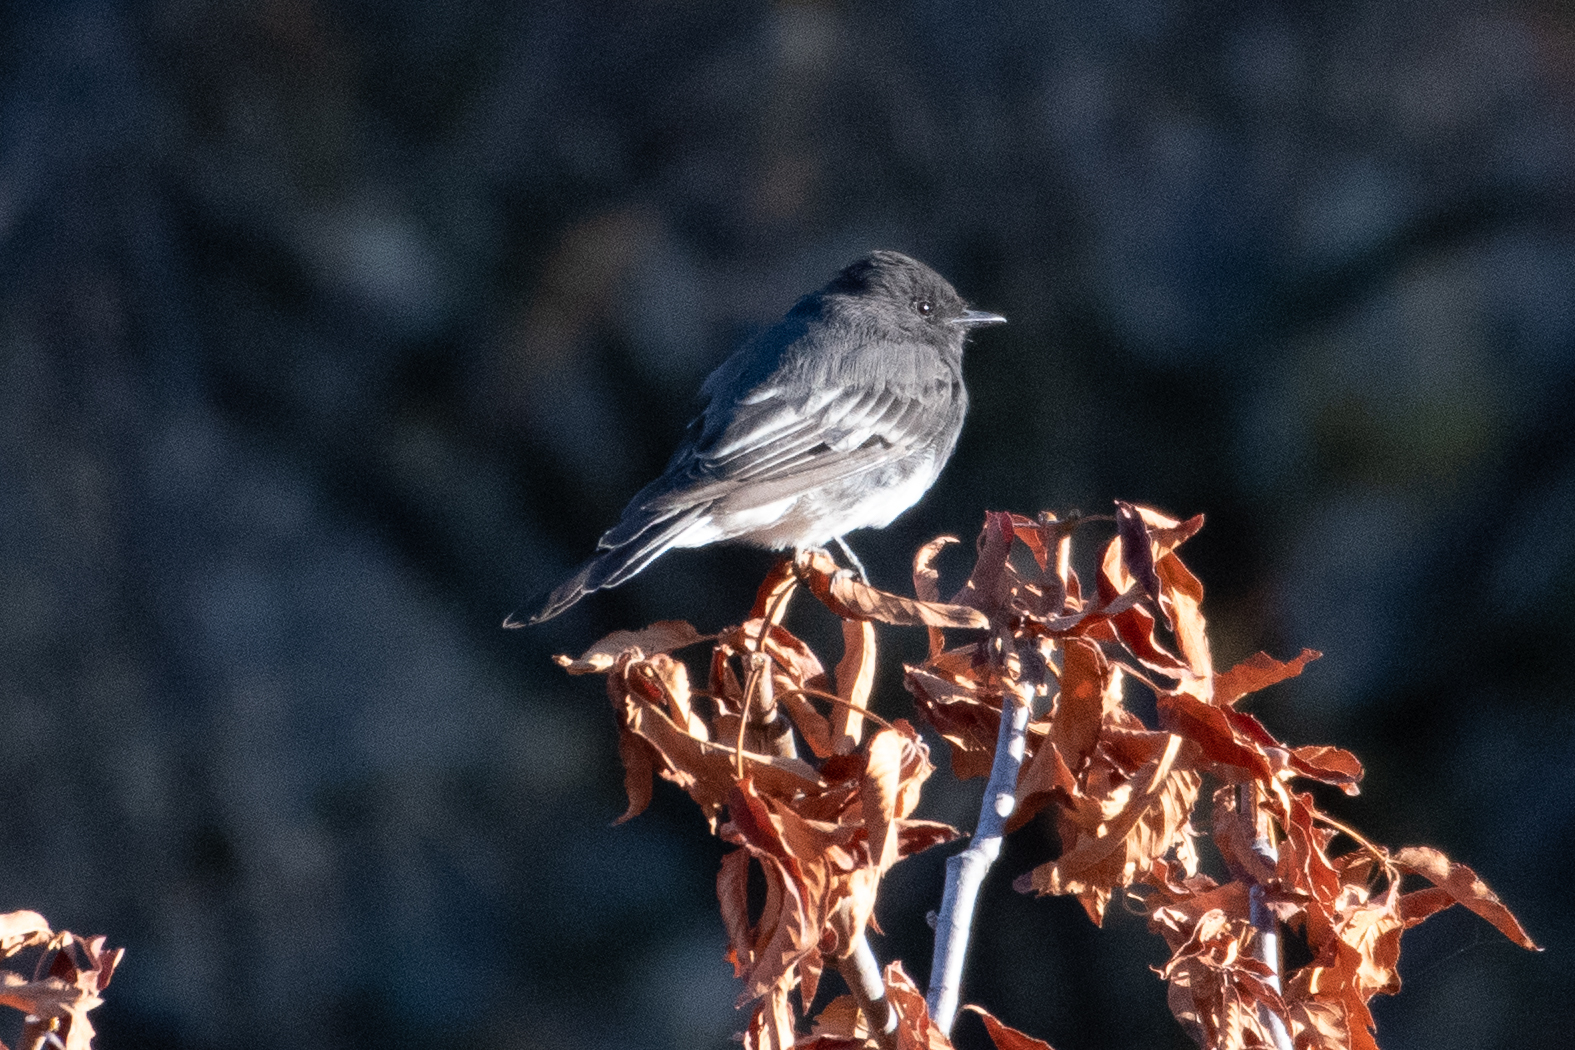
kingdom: Animalia
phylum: Chordata
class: Aves
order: Passeriformes
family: Tyrannidae
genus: Sayornis
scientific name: Sayornis nigricans
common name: Black phoebe
